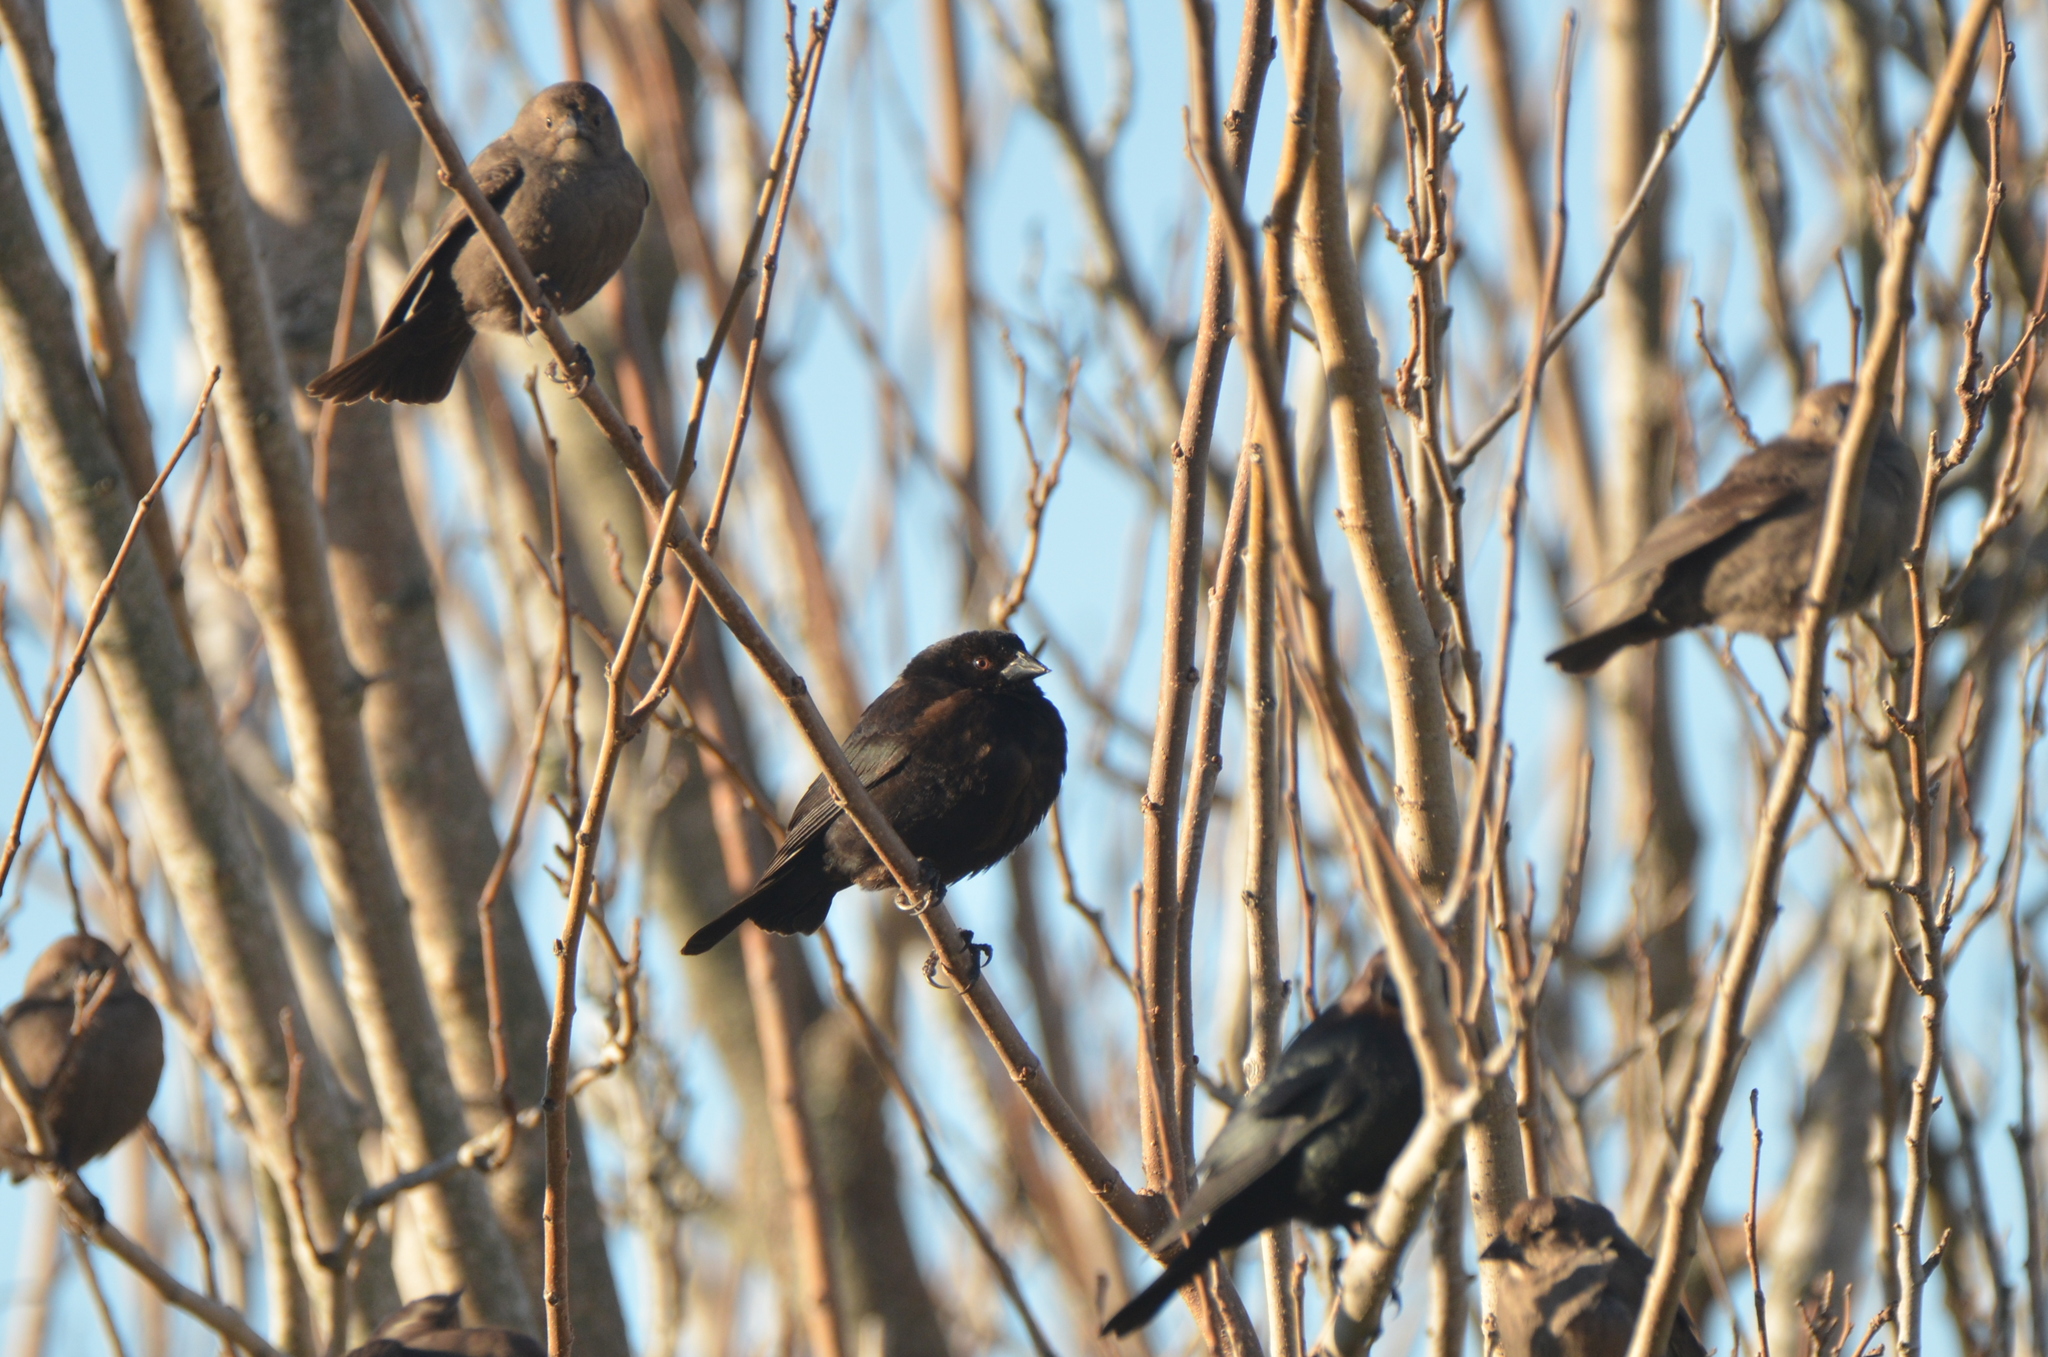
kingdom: Animalia
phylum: Chordata
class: Aves
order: Passeriformes
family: Icteridae
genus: Molothrus
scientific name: Molothrus aeneus
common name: Bronzed cowbird
